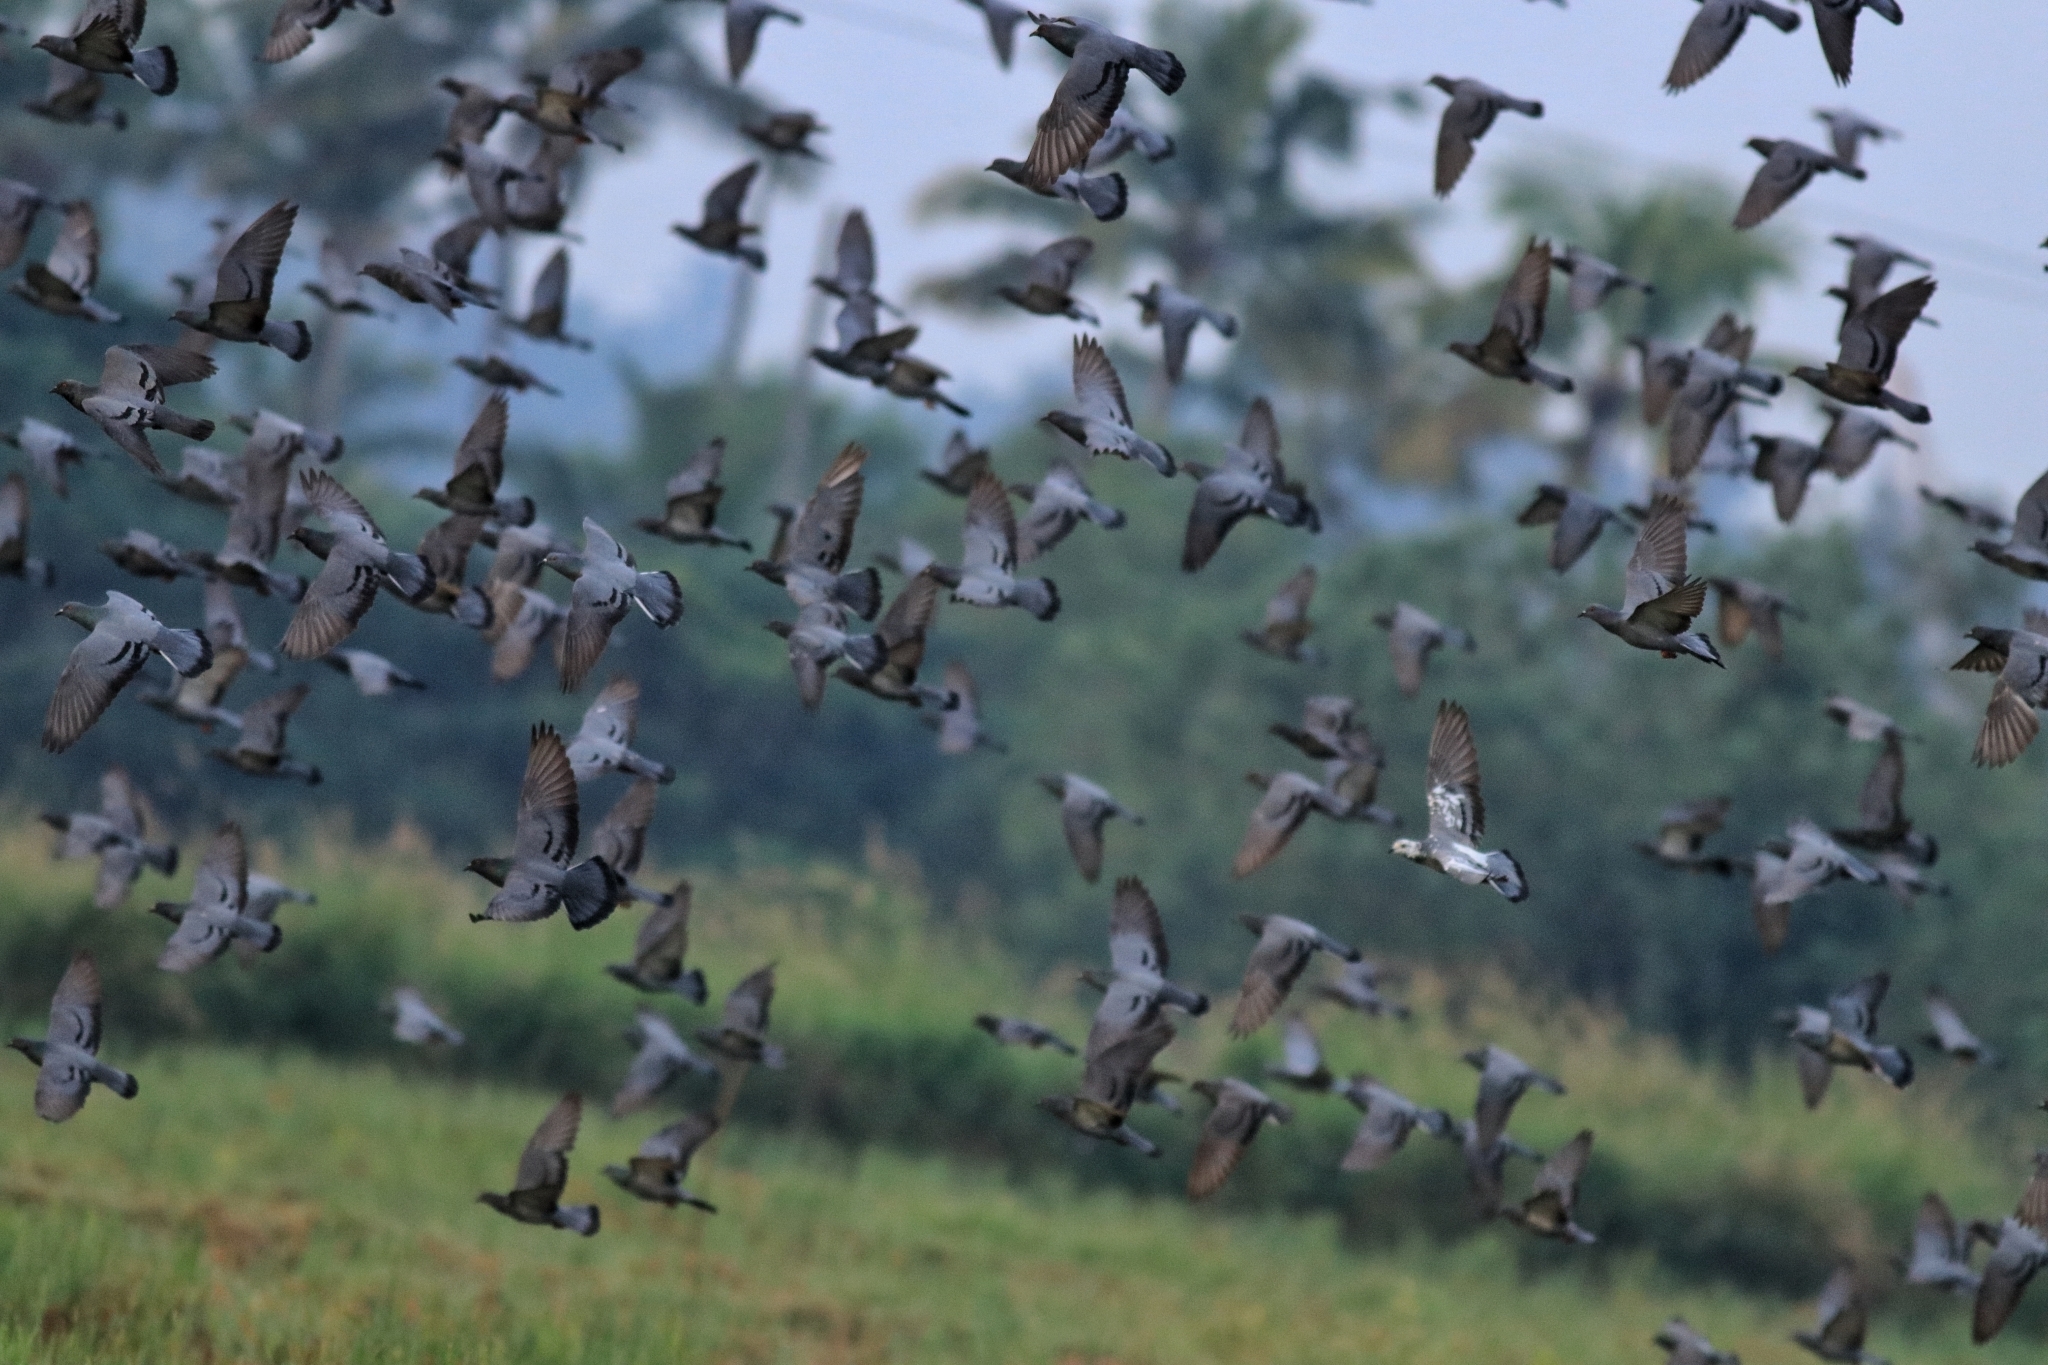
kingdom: Animalia
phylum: Chordata
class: Aves
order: Columbiformes
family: Columbidae
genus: Columba
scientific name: Columba livia
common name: Rock pigeon
